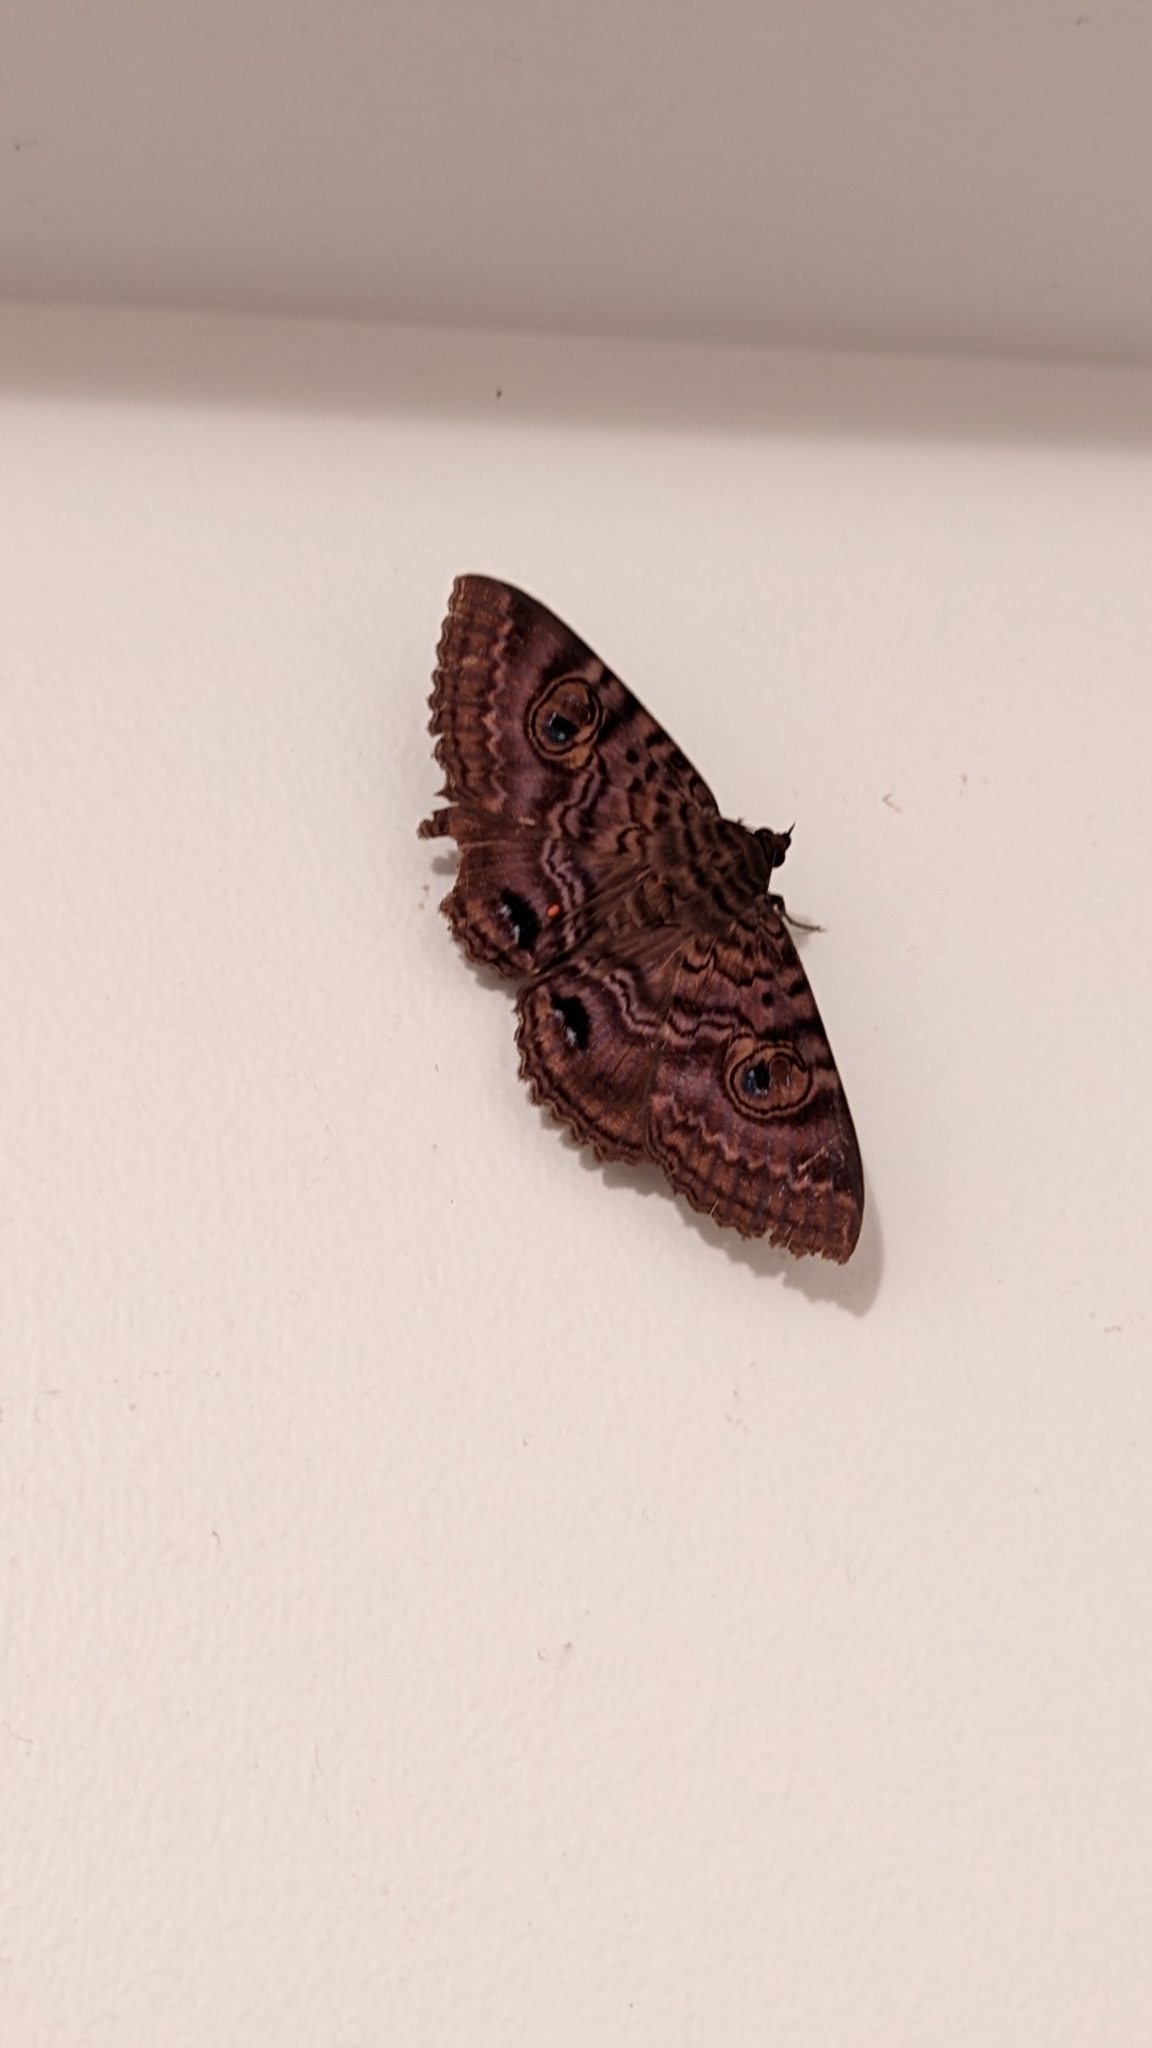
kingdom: Animalia
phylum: Arthropoda
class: Insecta
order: Lepidoptera
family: Erebidae
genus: Speiredonia
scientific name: Speiredonia spectans
